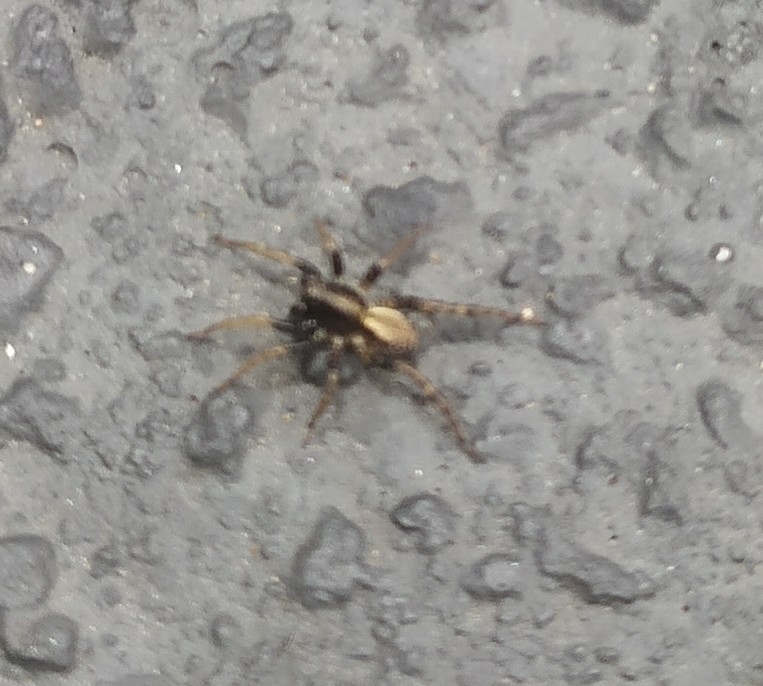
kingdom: Animalia
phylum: Arthropoda
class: Arachnida
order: Araneae
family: Lycosidae
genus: Abaycosa
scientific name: Abaycosa nanica
